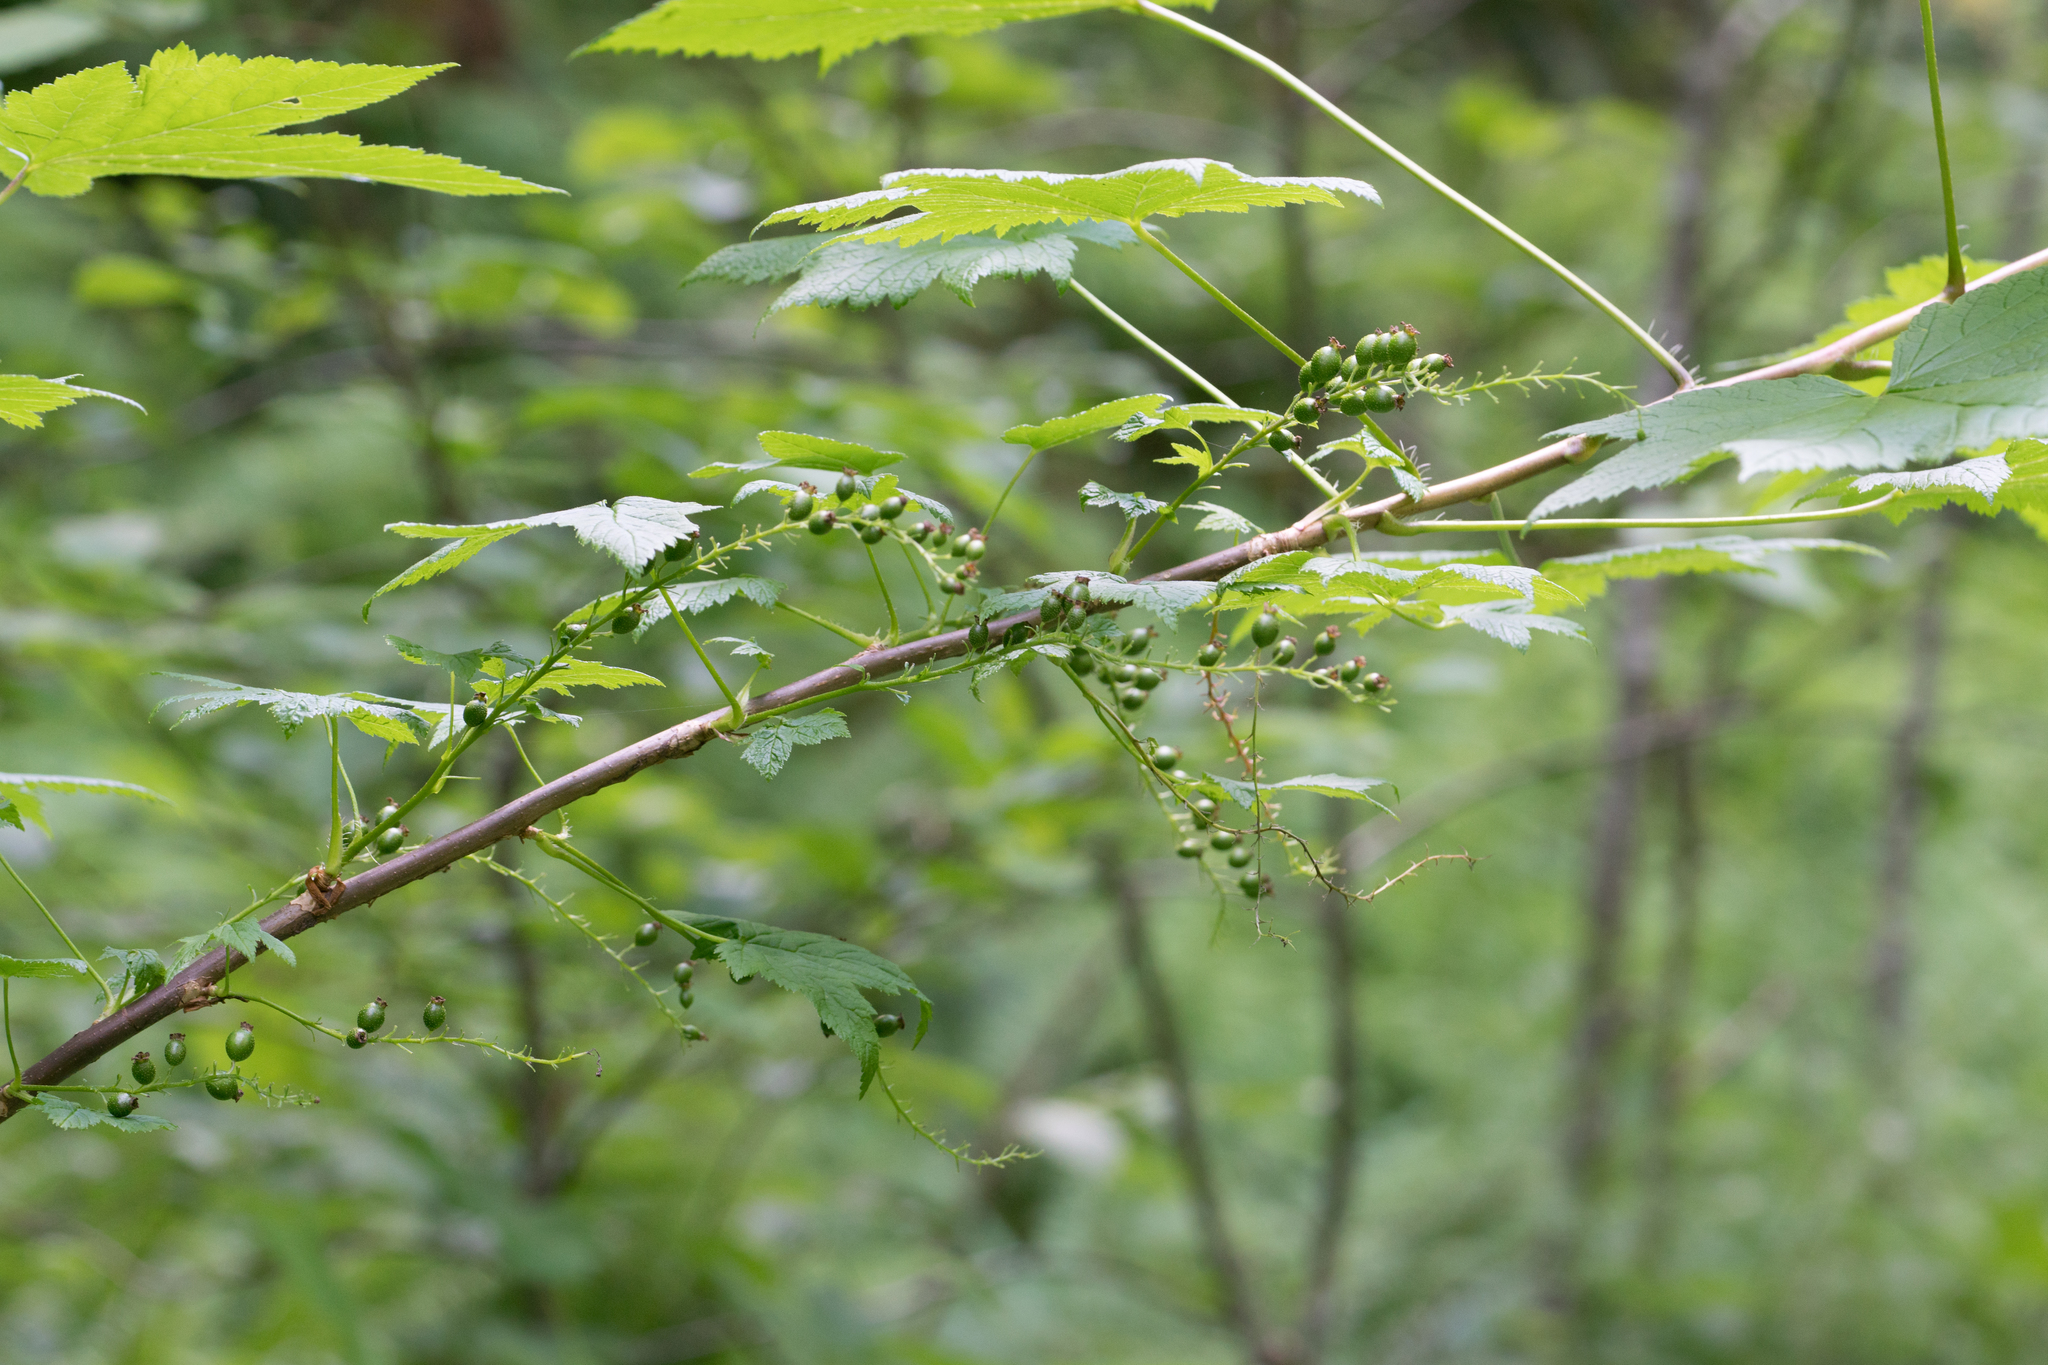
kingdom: Plantae
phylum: Tracheophyta
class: Magnoliopsida
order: Saxifragales
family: Grossulariaceae
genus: Ribes
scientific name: Ribes bracteosum
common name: California black currant
